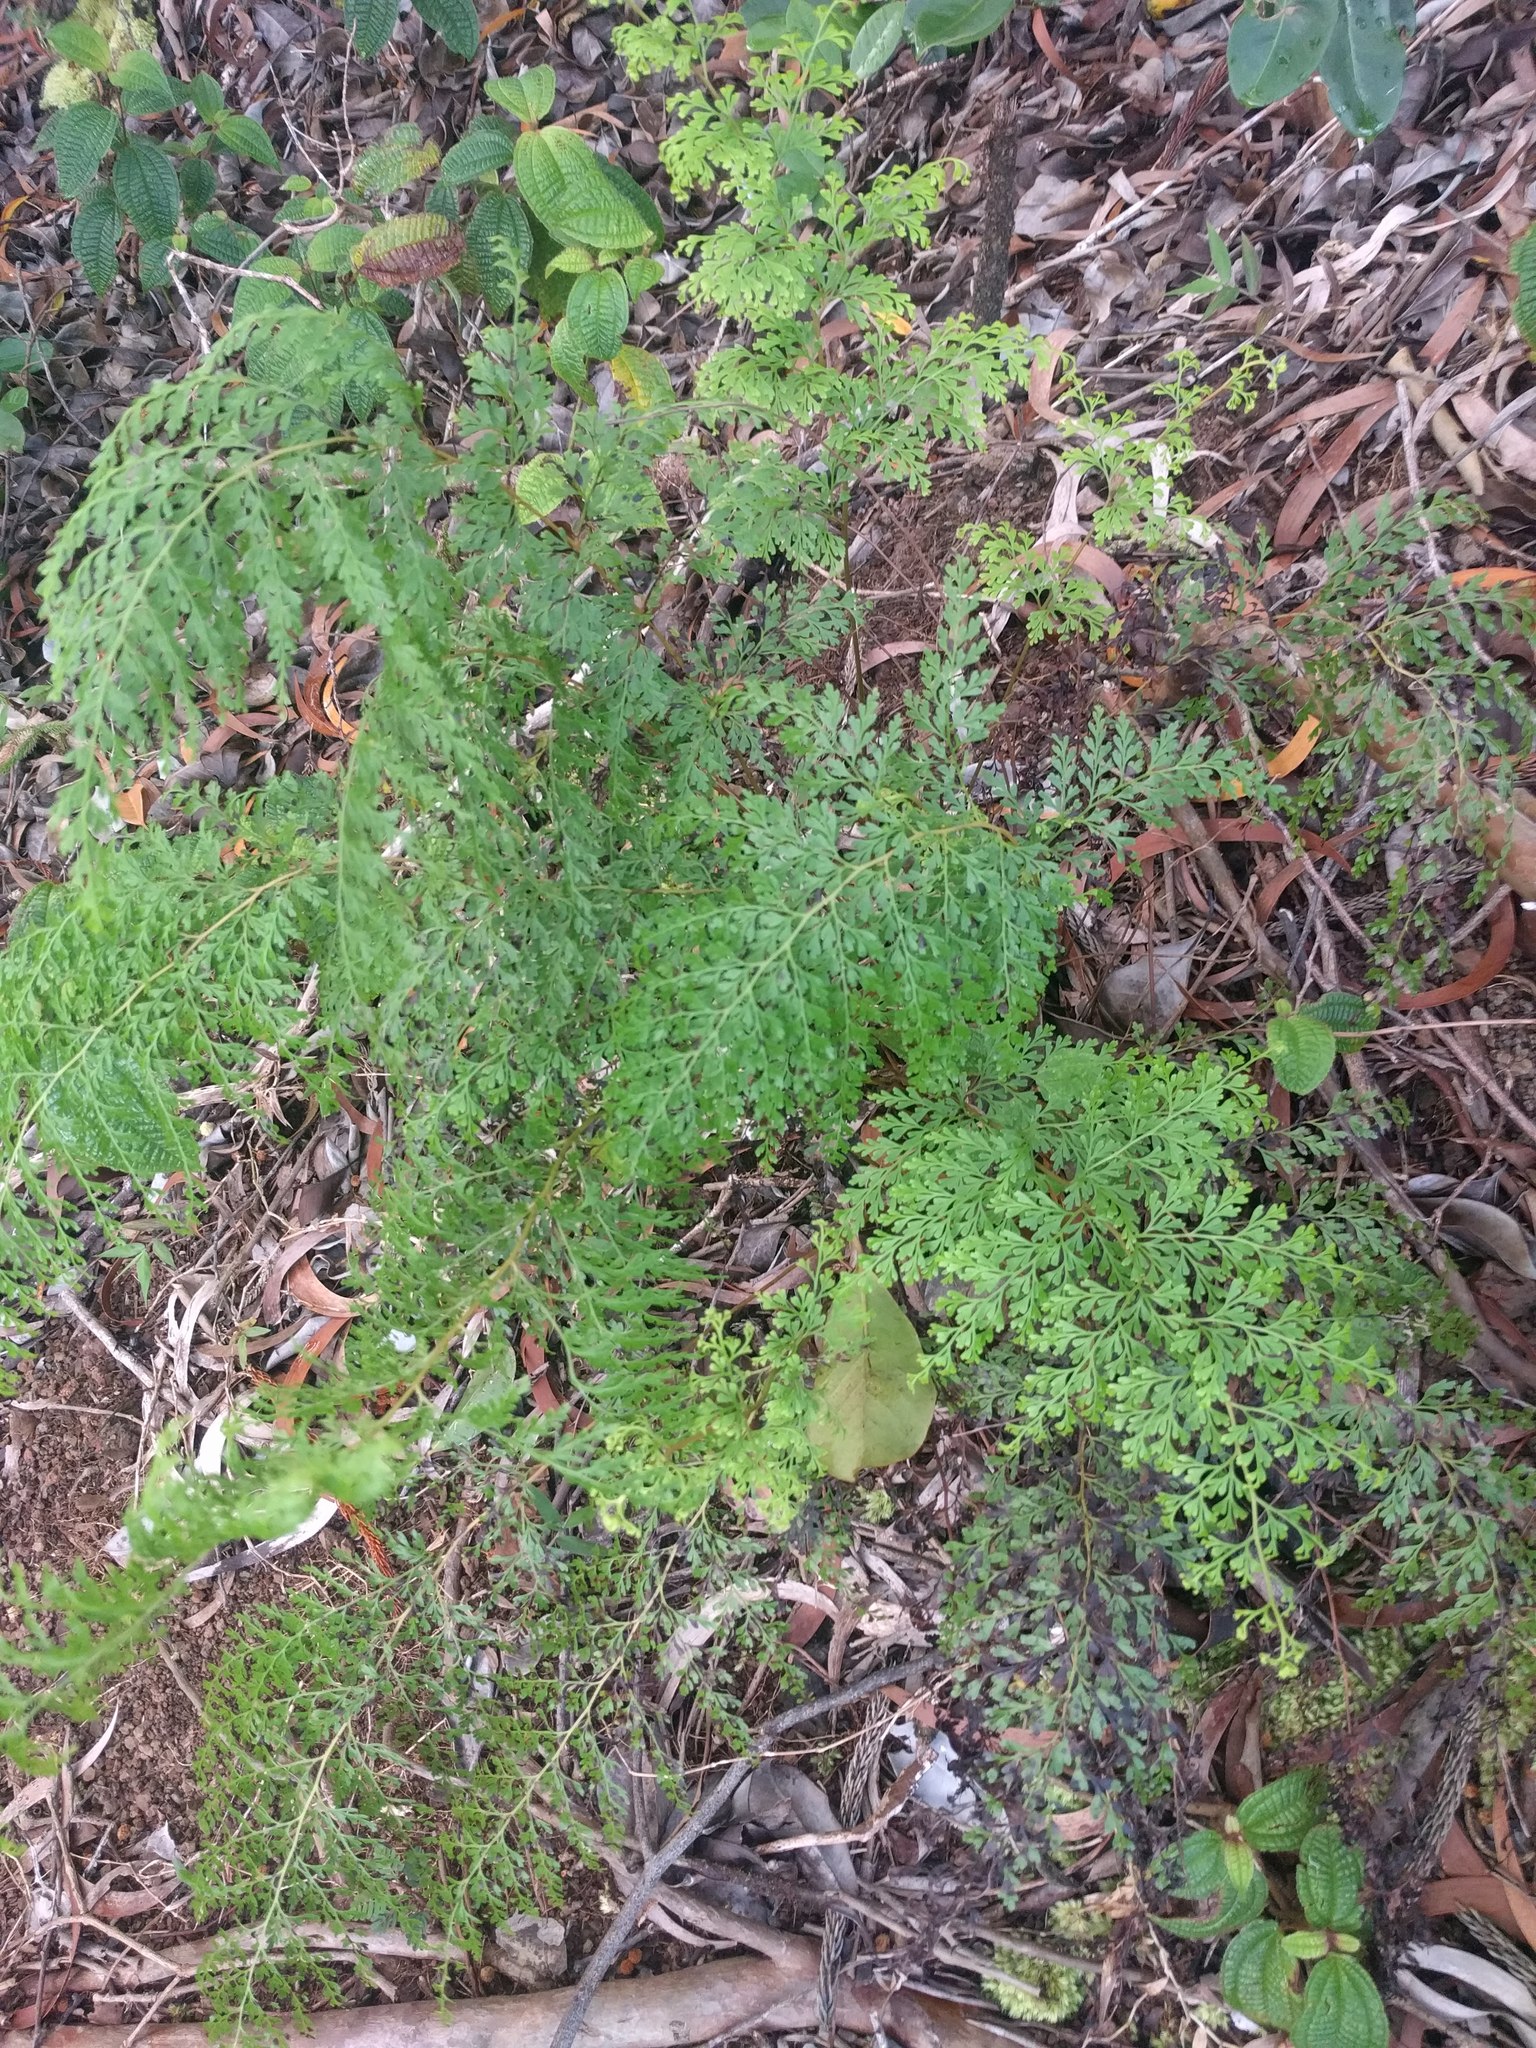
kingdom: Plantae
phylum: Tracheophyta
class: Polypodiopsida
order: Polypodiales
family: Lindsaeaceae
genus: Odontosoria
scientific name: Odontosoria chinensis
